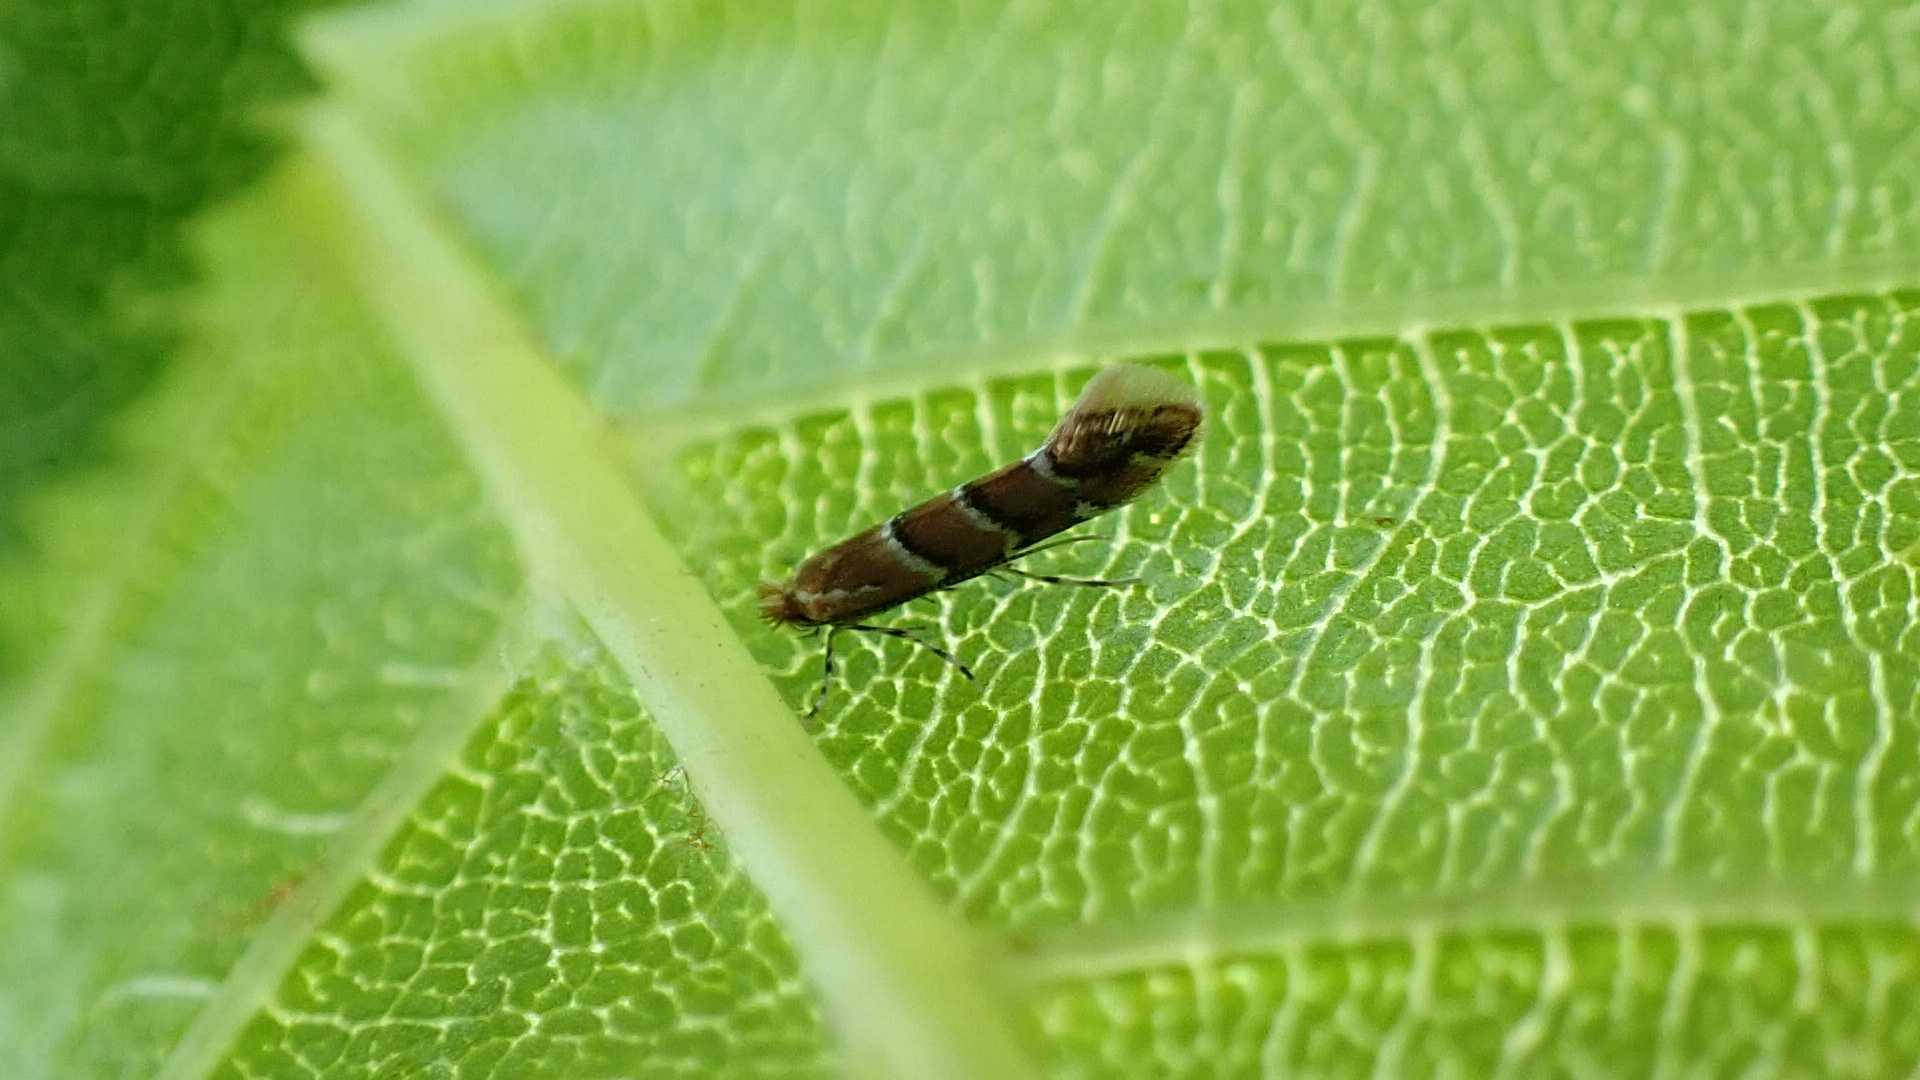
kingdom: Animalia
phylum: Arthropoda
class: Insecta
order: Lepidoptera
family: Gracillariidae
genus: Cameraria
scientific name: Cameraria ohridella
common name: Horse-chestnut leaf-miner
